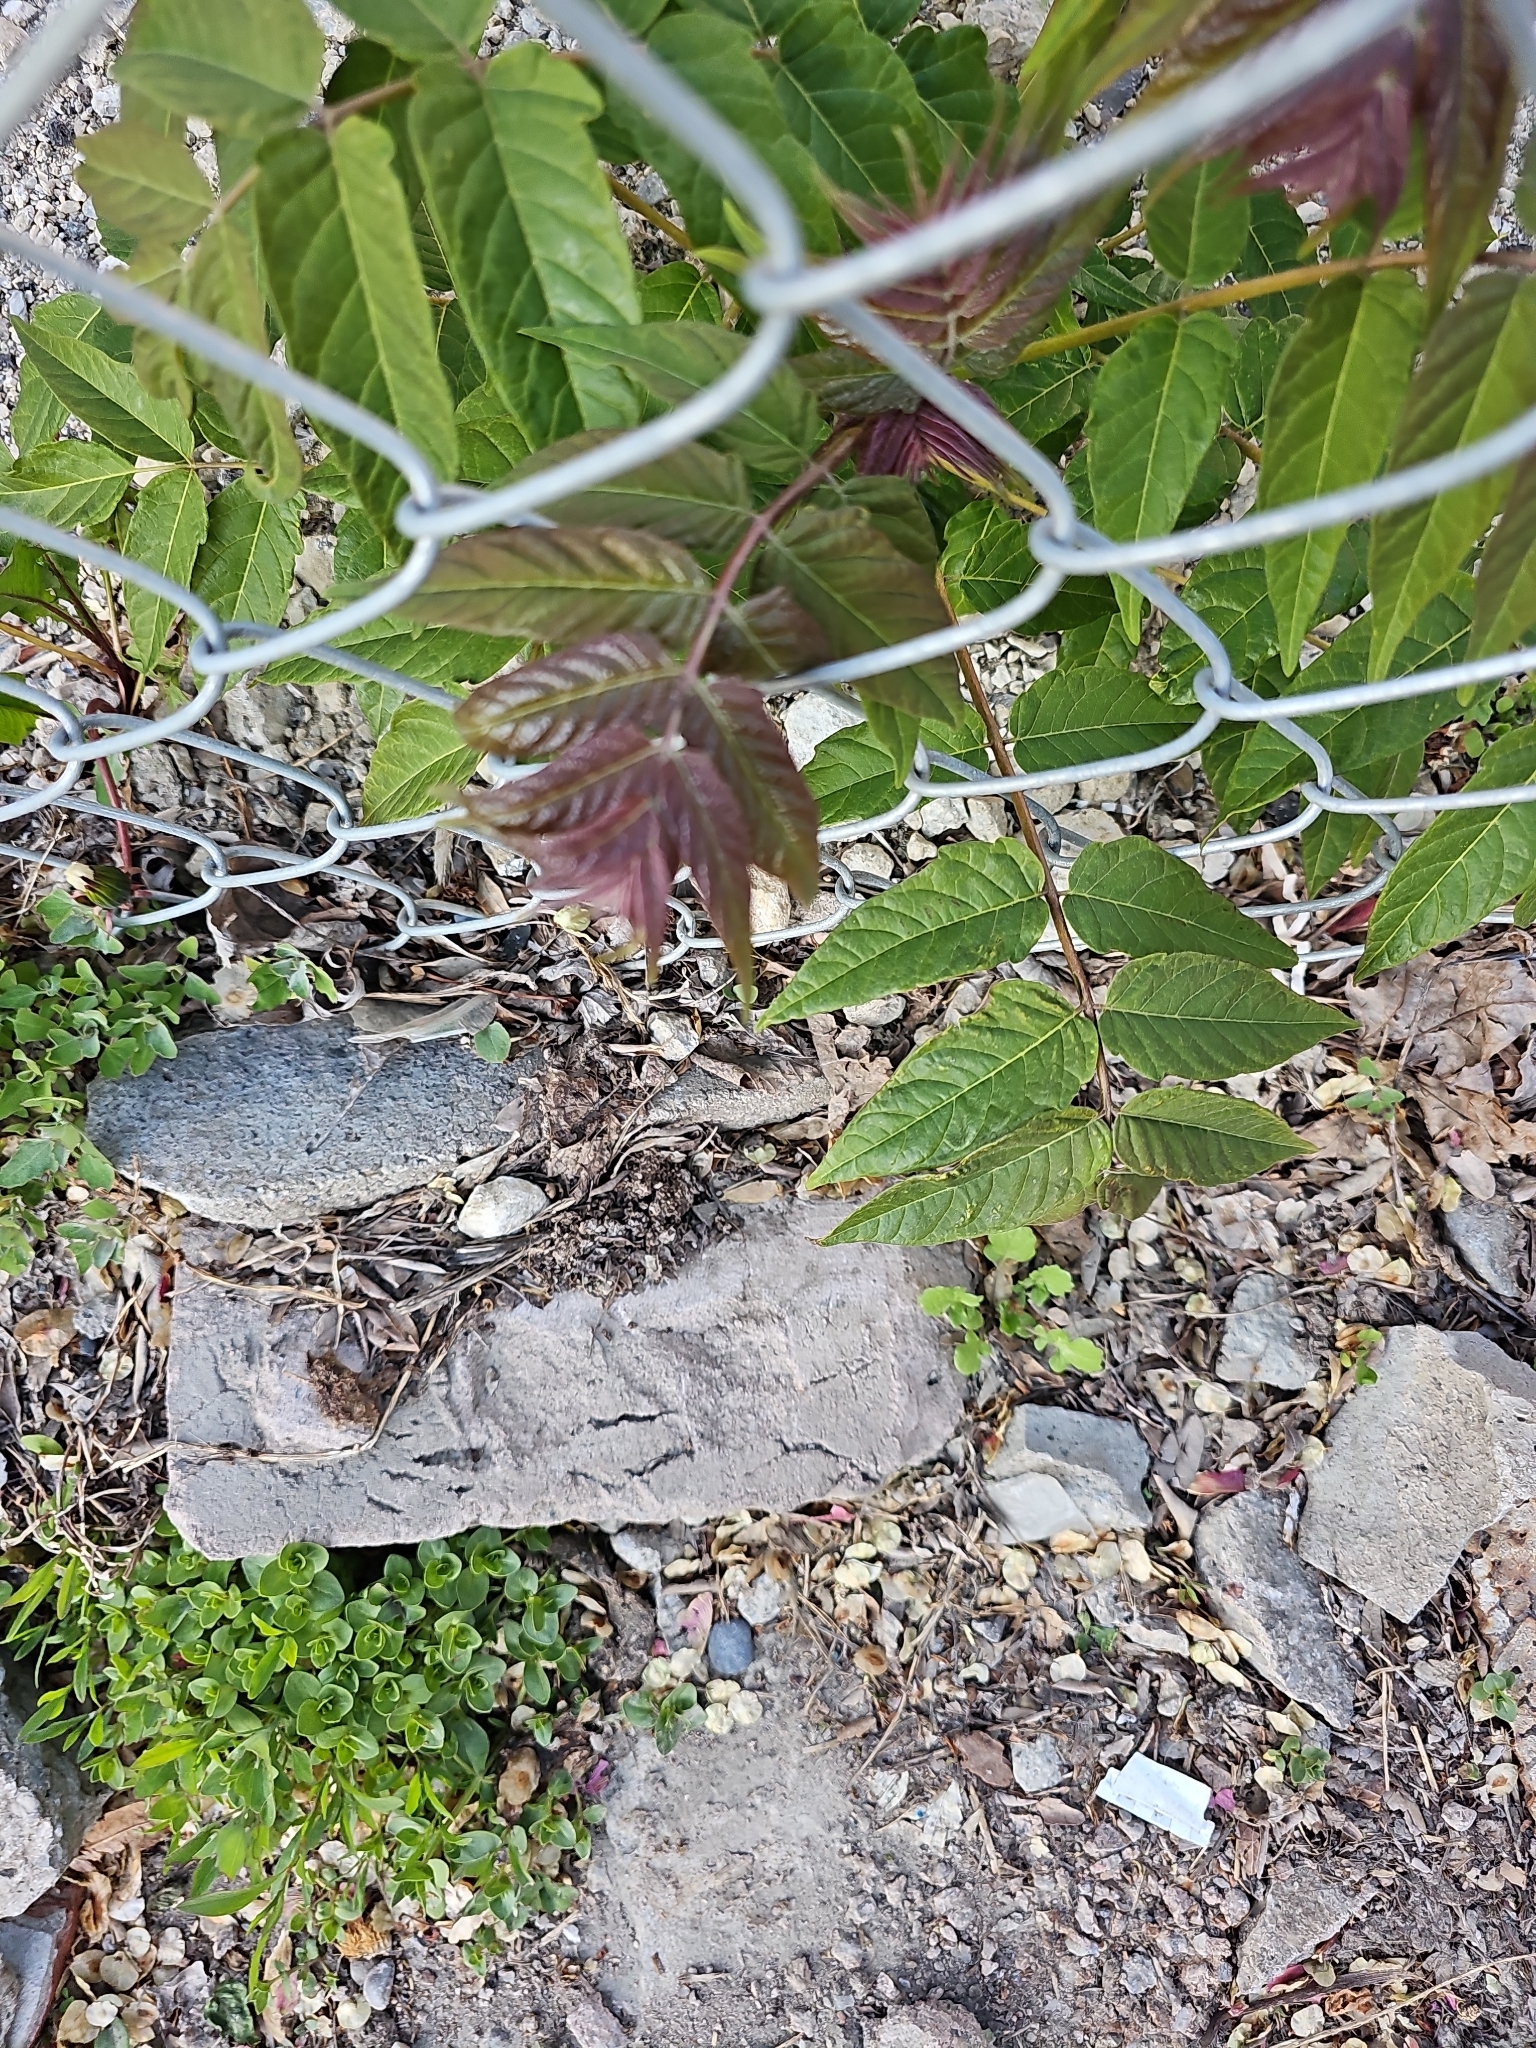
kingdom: Plantae
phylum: Tracheophyta
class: Magnoliopsida
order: Sapindales
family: Simaroubaceae
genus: Ailanthus
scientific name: Ailanthus altissima
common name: Tree-of-heaven
